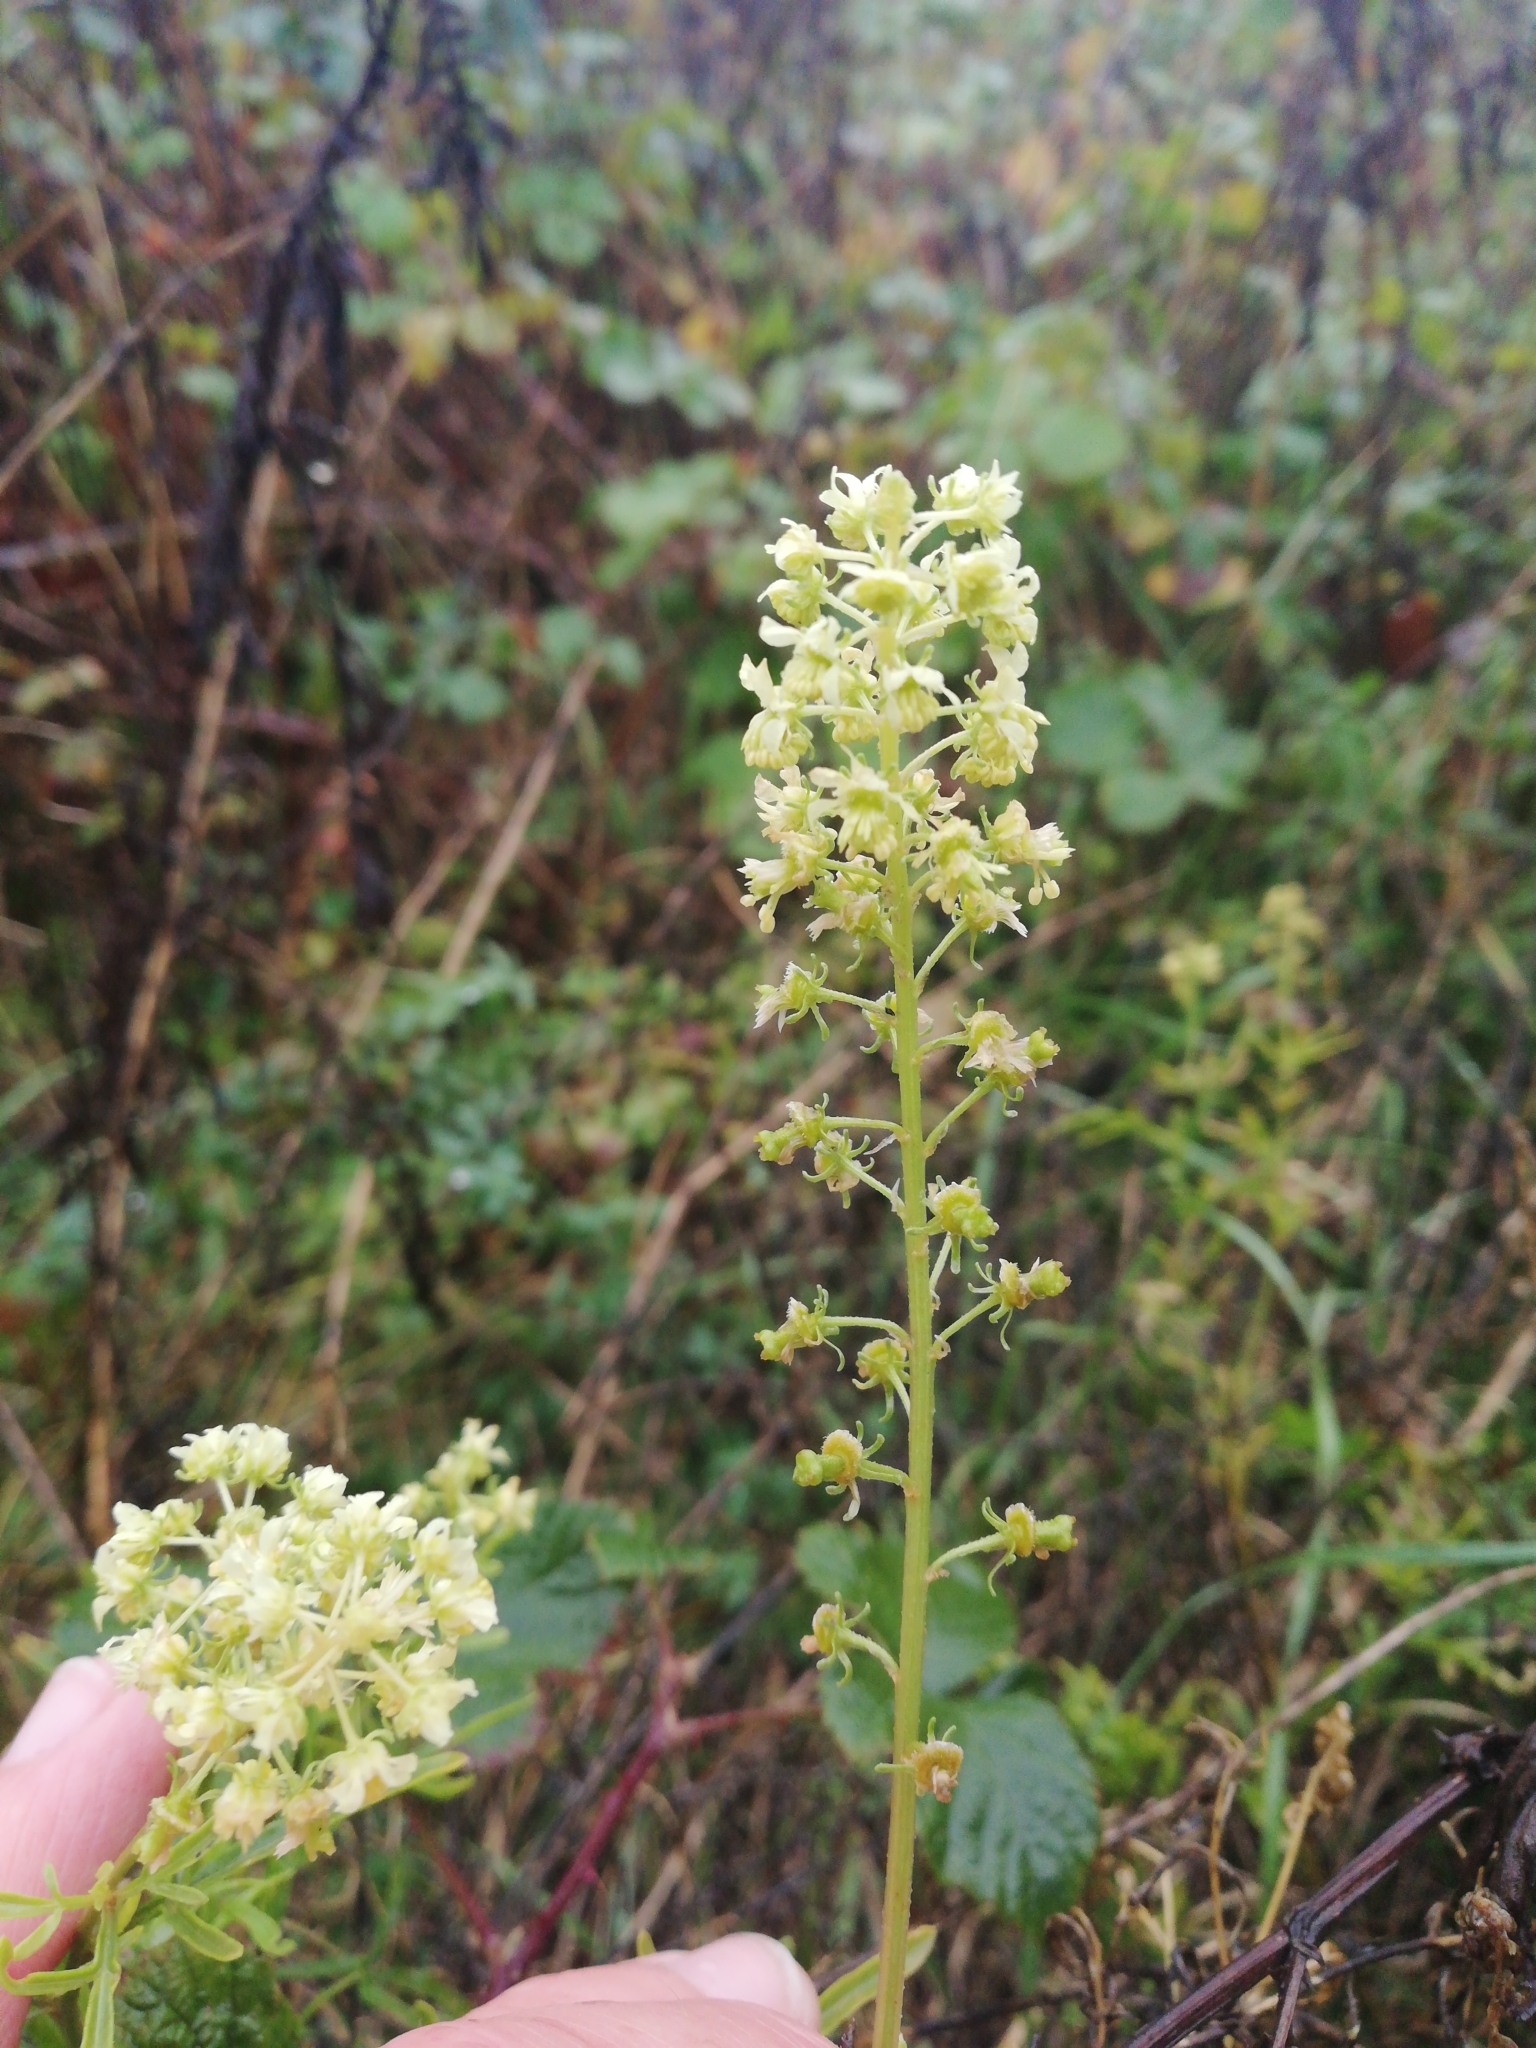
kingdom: Plantae
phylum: Tracheophyta
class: Magnoliopsida
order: Brassicales
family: Resedaceae
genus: Reseda
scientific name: Reseda lutea
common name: Wild mignonette
